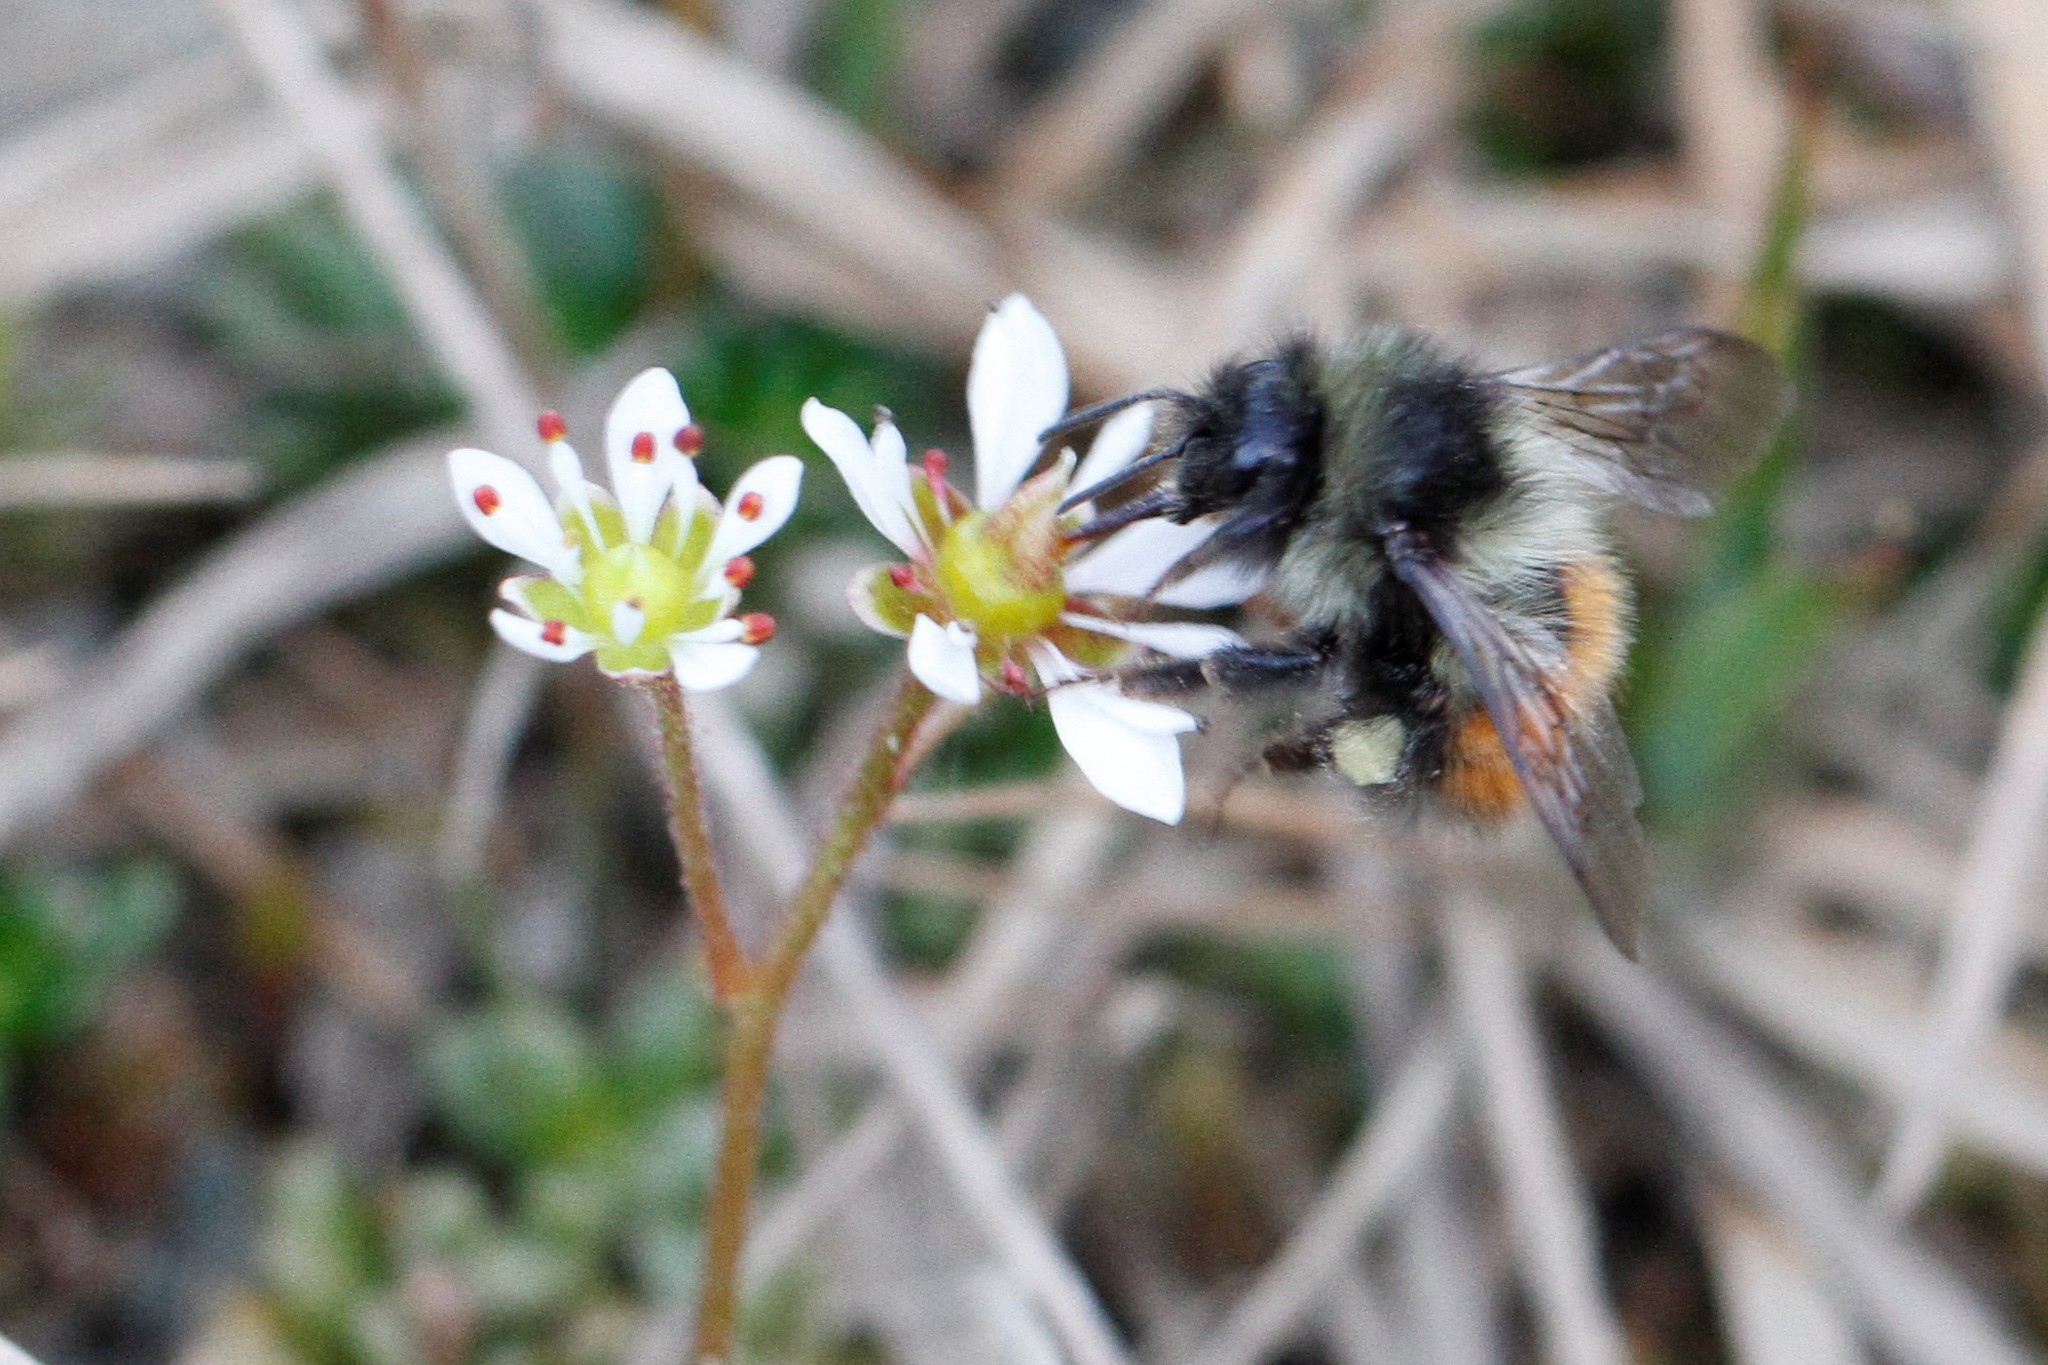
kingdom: Animalia
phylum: Arthropoda
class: Insecta
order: Hymenoptera
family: Apidae
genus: Bombus
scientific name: Bombus melanopygus
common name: Black tail bumble bee
